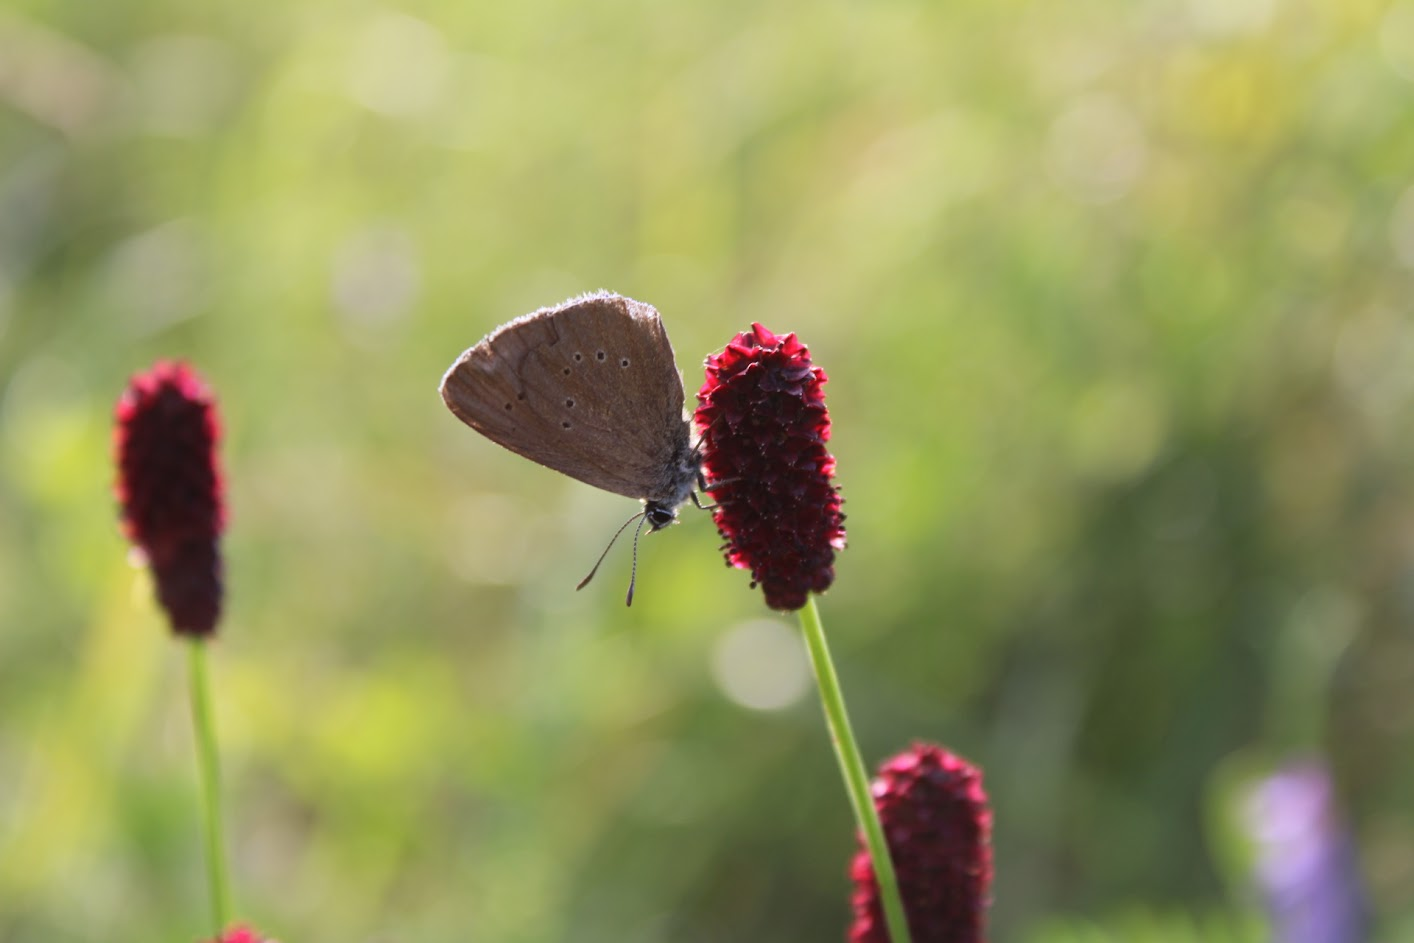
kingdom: Animalia
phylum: Arthropoda
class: Insecta
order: Lepidoptera
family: Lycaenidae
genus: Maculinea
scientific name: Maculinea nausithous
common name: Dusky large blue
